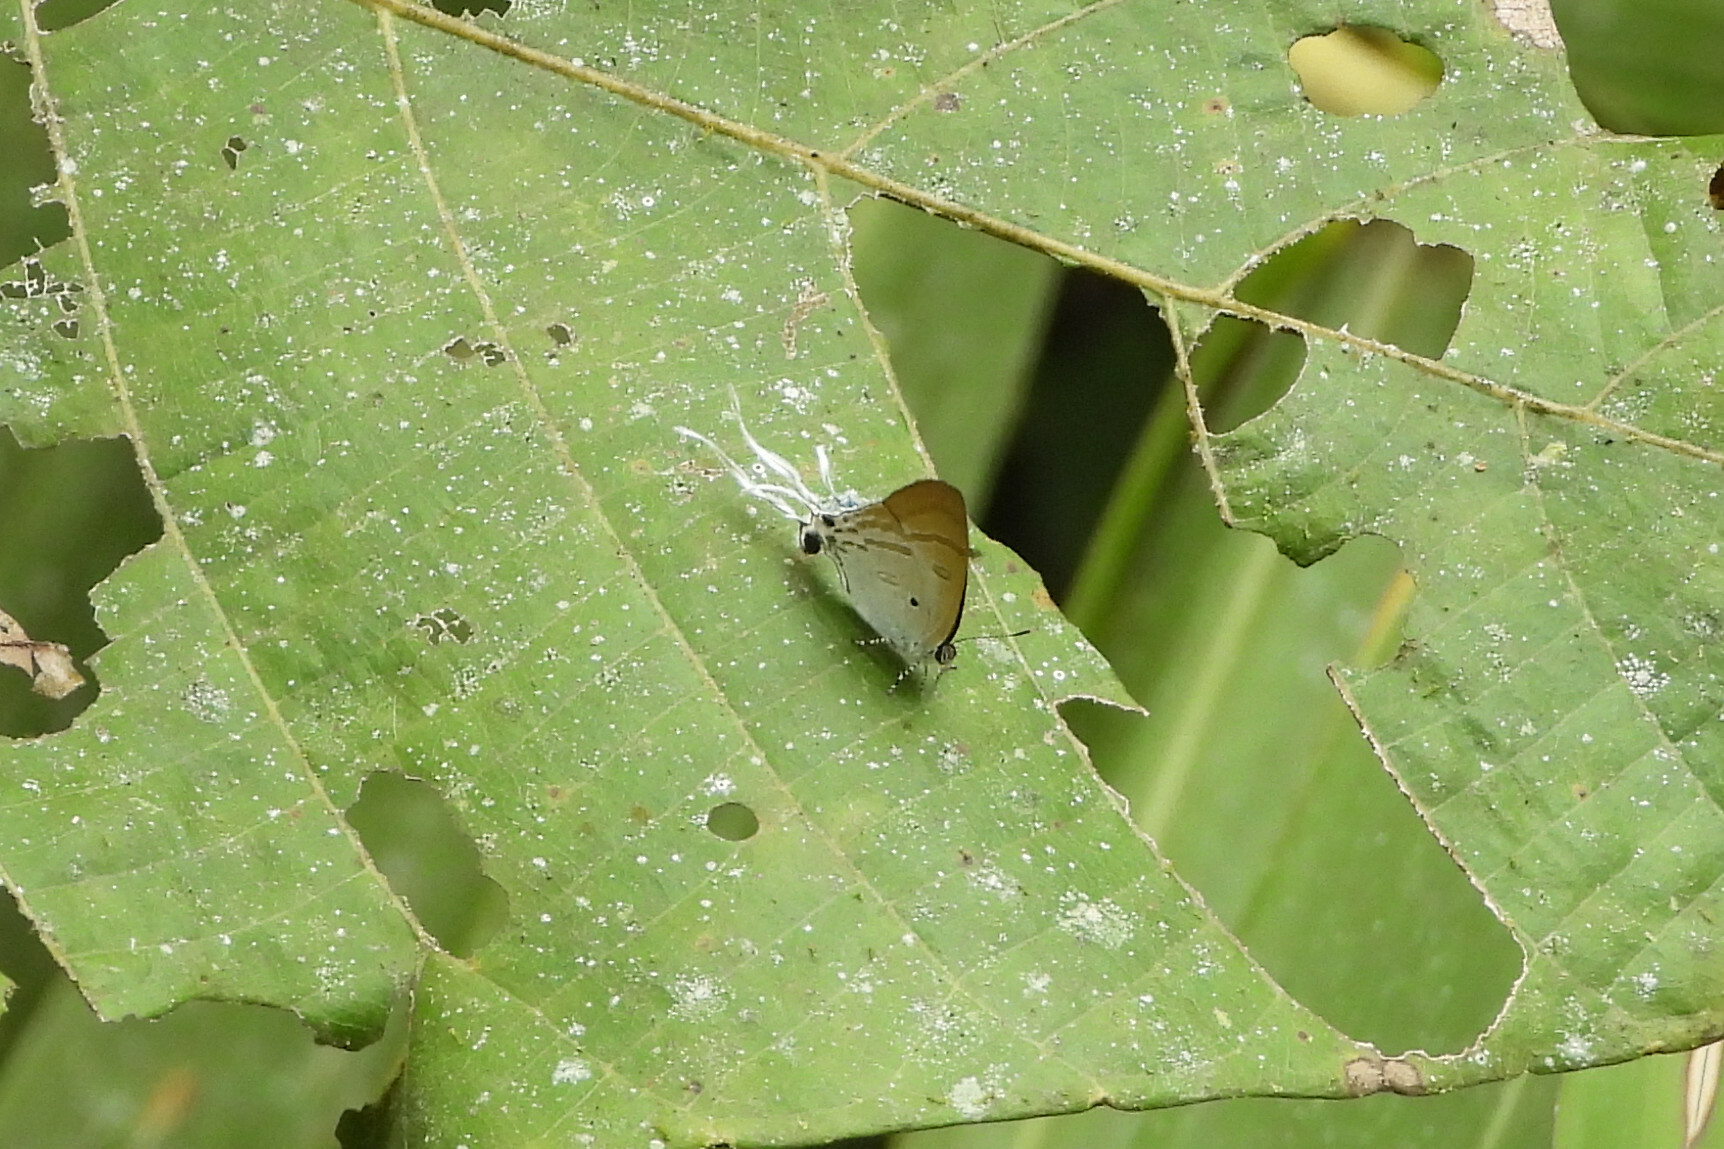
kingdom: Animalia
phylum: Arthropoda
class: Insecta
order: Lepidoptera
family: Lycaenidae
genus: Zeltus
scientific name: Zeltus amasa
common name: Fluffy tit
